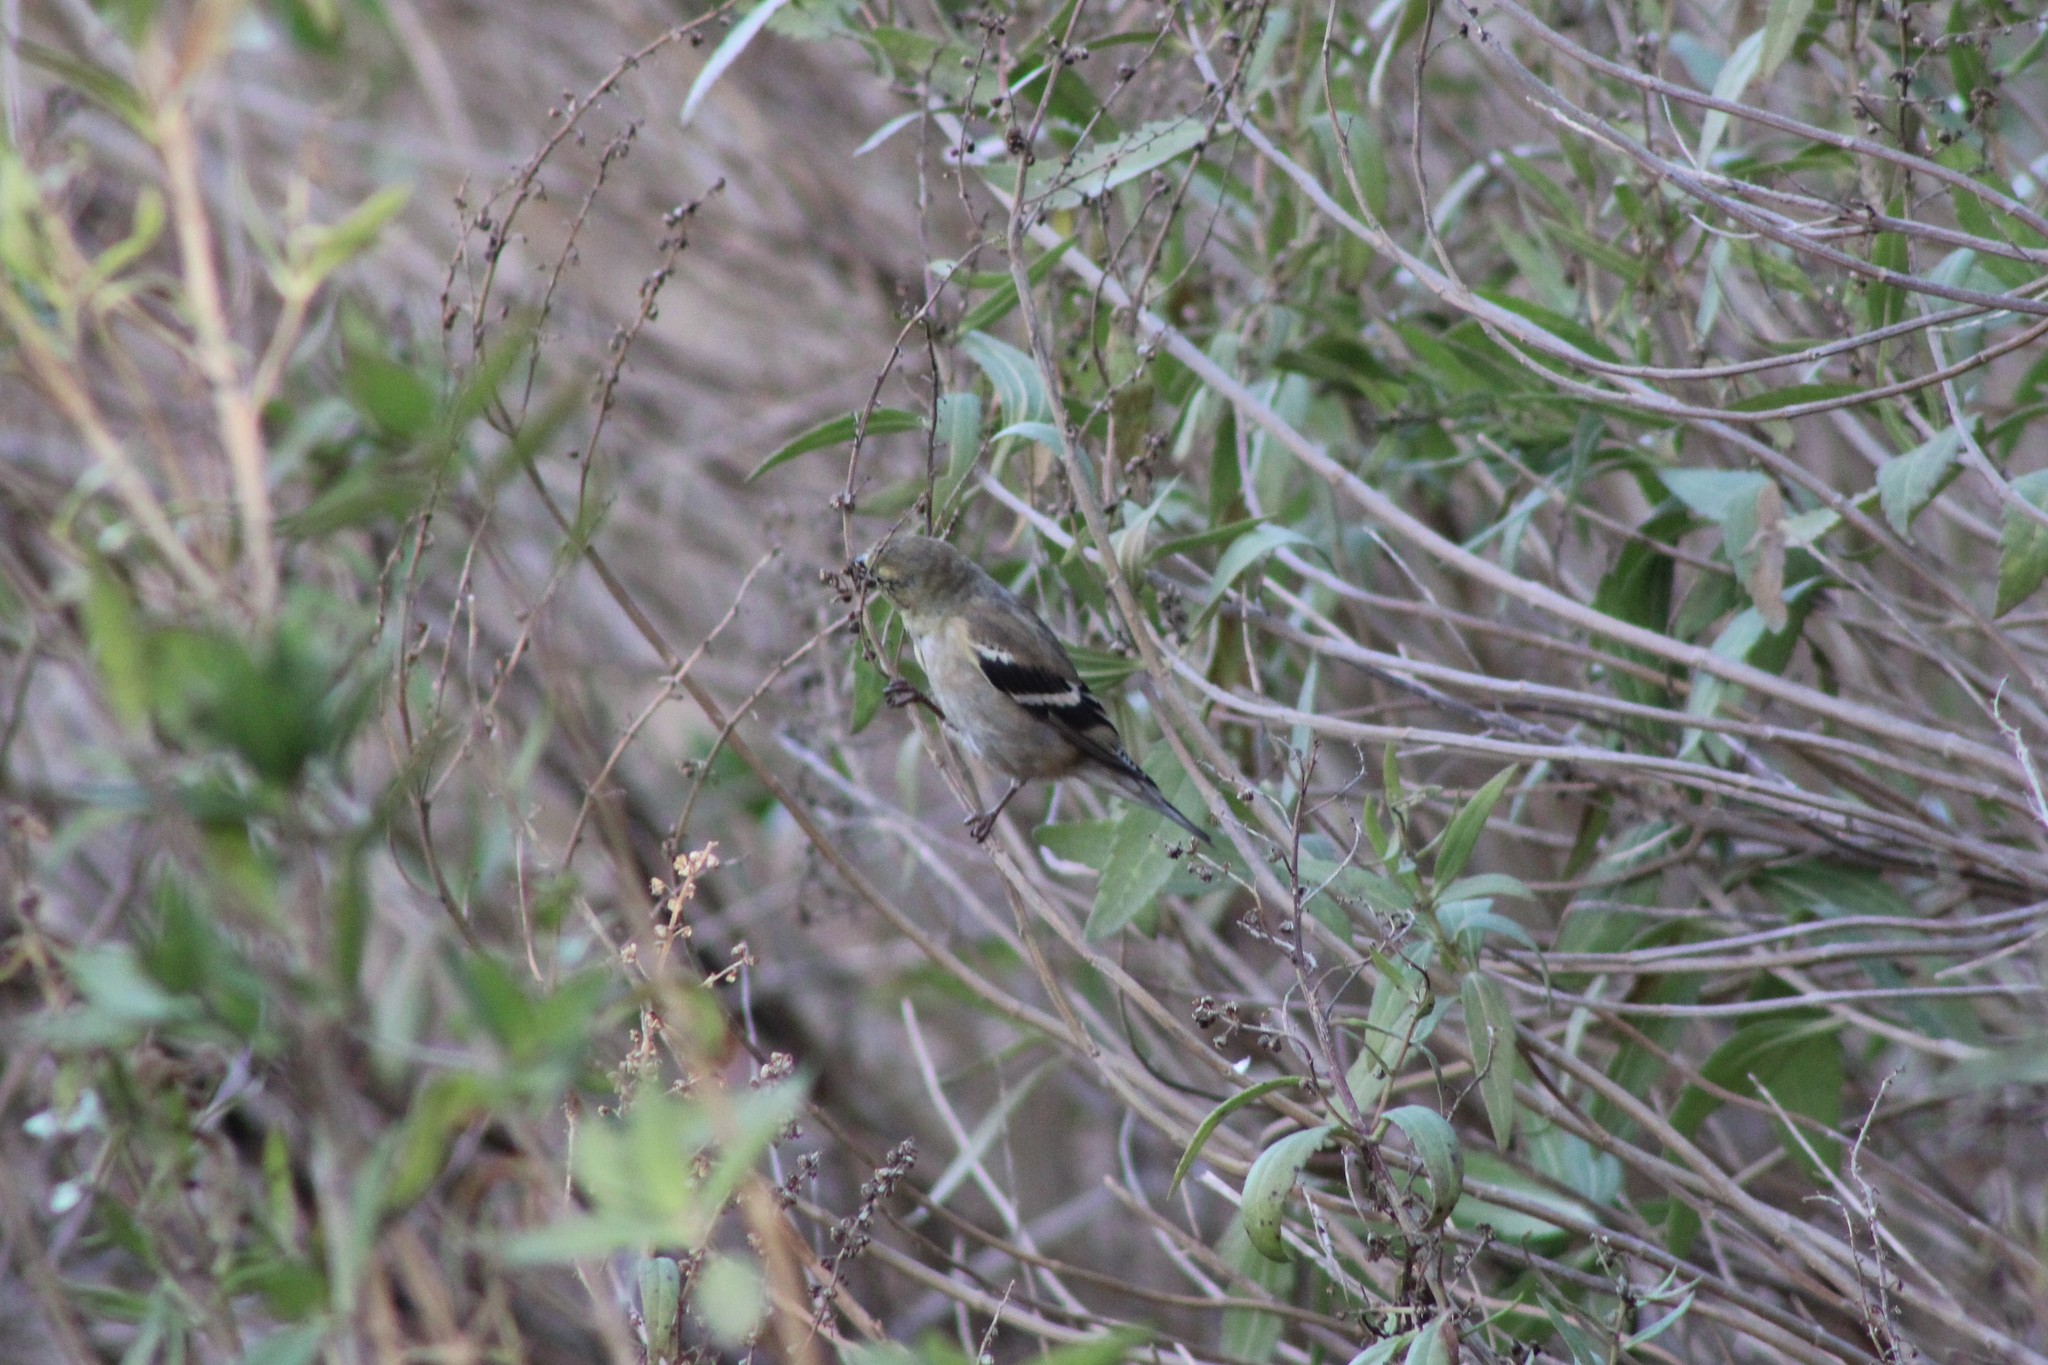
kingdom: Animalia
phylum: Chordata
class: Aves
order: Passeriformes
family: Fringillidae
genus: Spinus
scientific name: Spinus tristis
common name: American goldfinch
